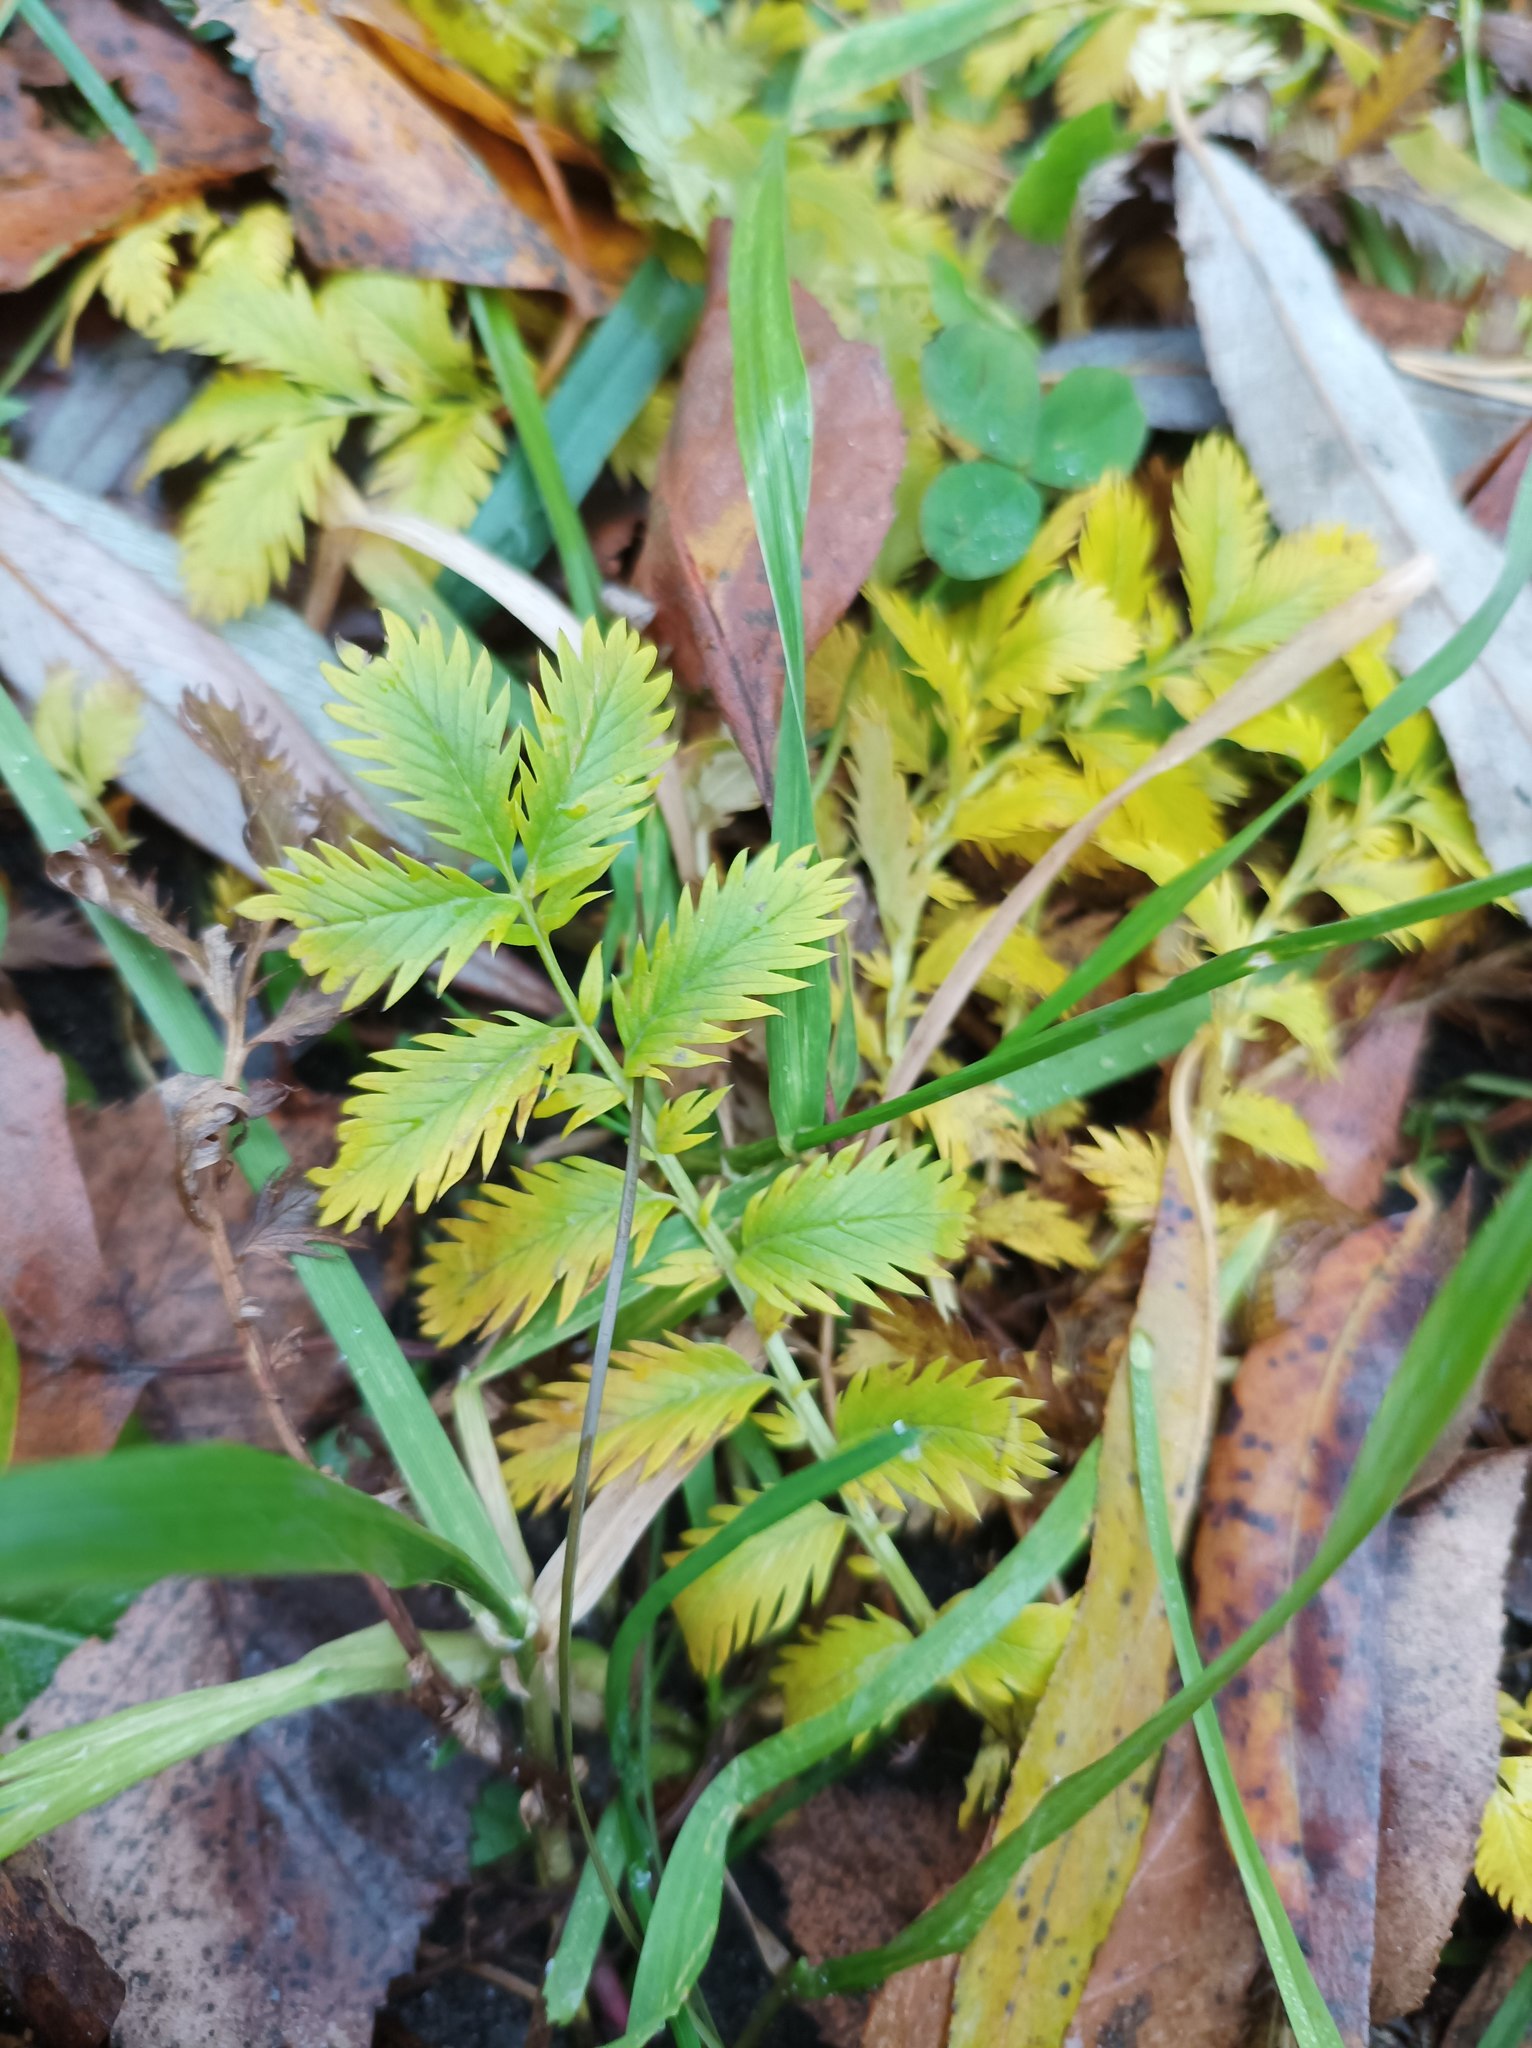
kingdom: Plantae
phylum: Tracheophyta
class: Magnoliopsida
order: Rosales
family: Rosaceae
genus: Argentina
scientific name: Argentina anserina
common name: Common silverweed
